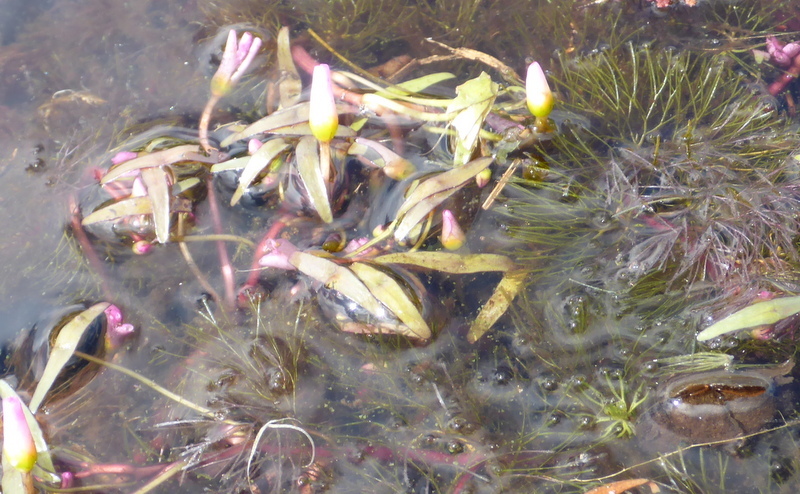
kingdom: Plantae
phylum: Tracheophyta
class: Magnoliopsida
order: Nymphaeales
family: Cabombaceae
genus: Cabomba
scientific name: Cabomba caroliniana
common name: Fanwort
